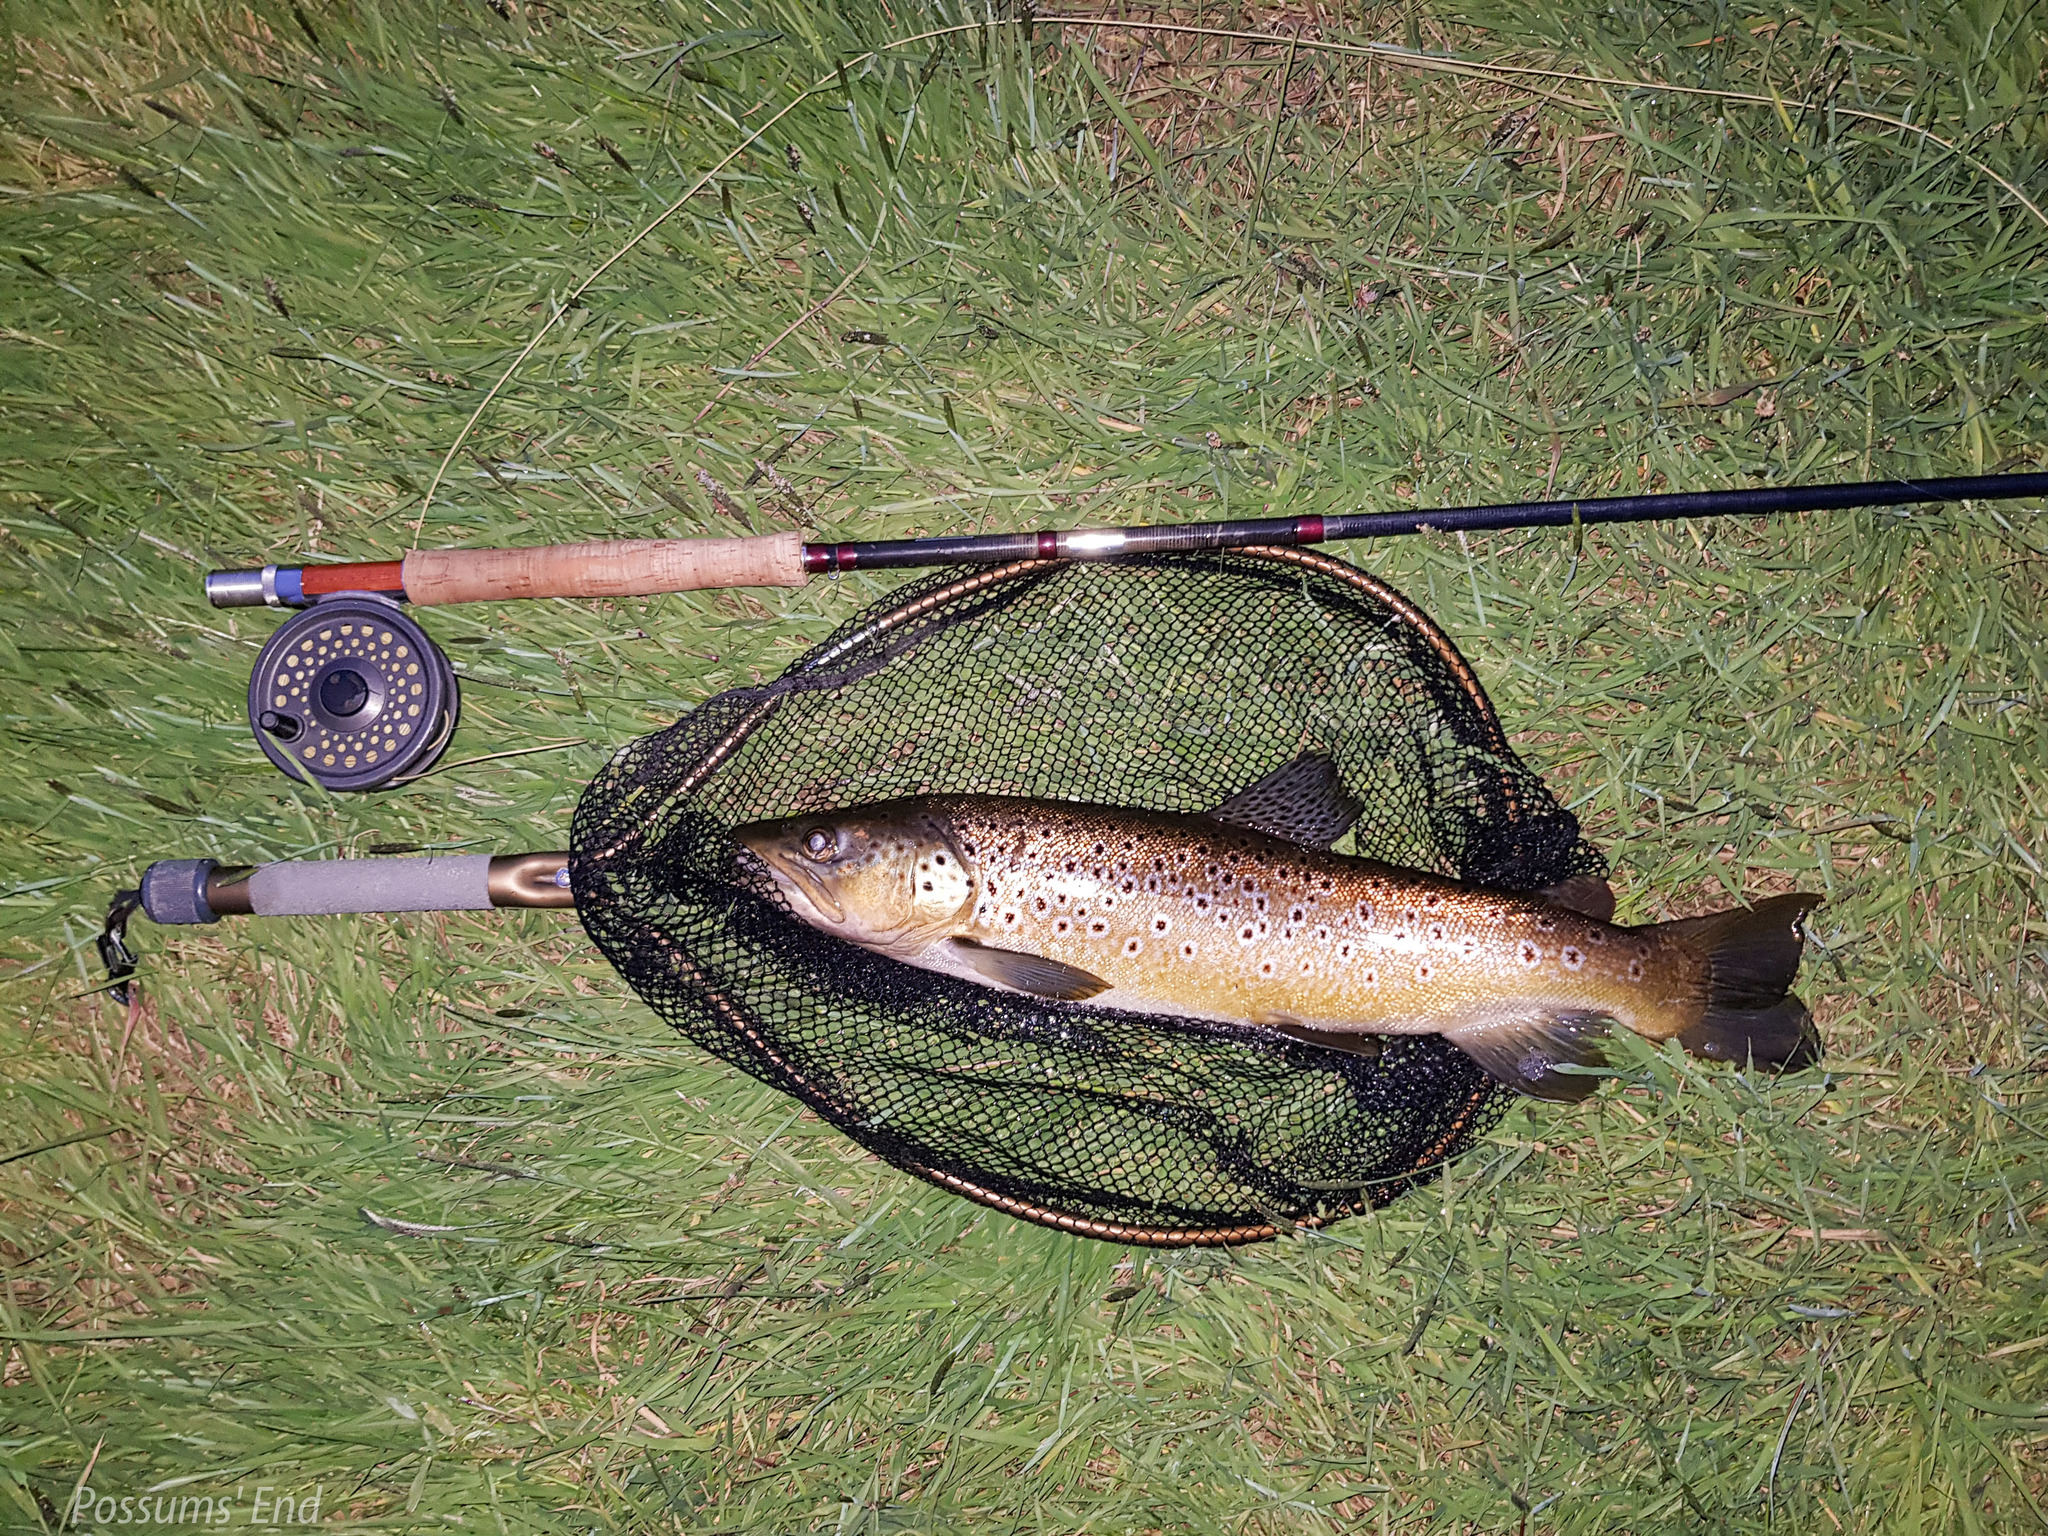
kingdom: Animalia
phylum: Chordata
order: Salmoniformes
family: Salmonidae
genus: Salmo
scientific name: Salmo trutta
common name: Brown trout
